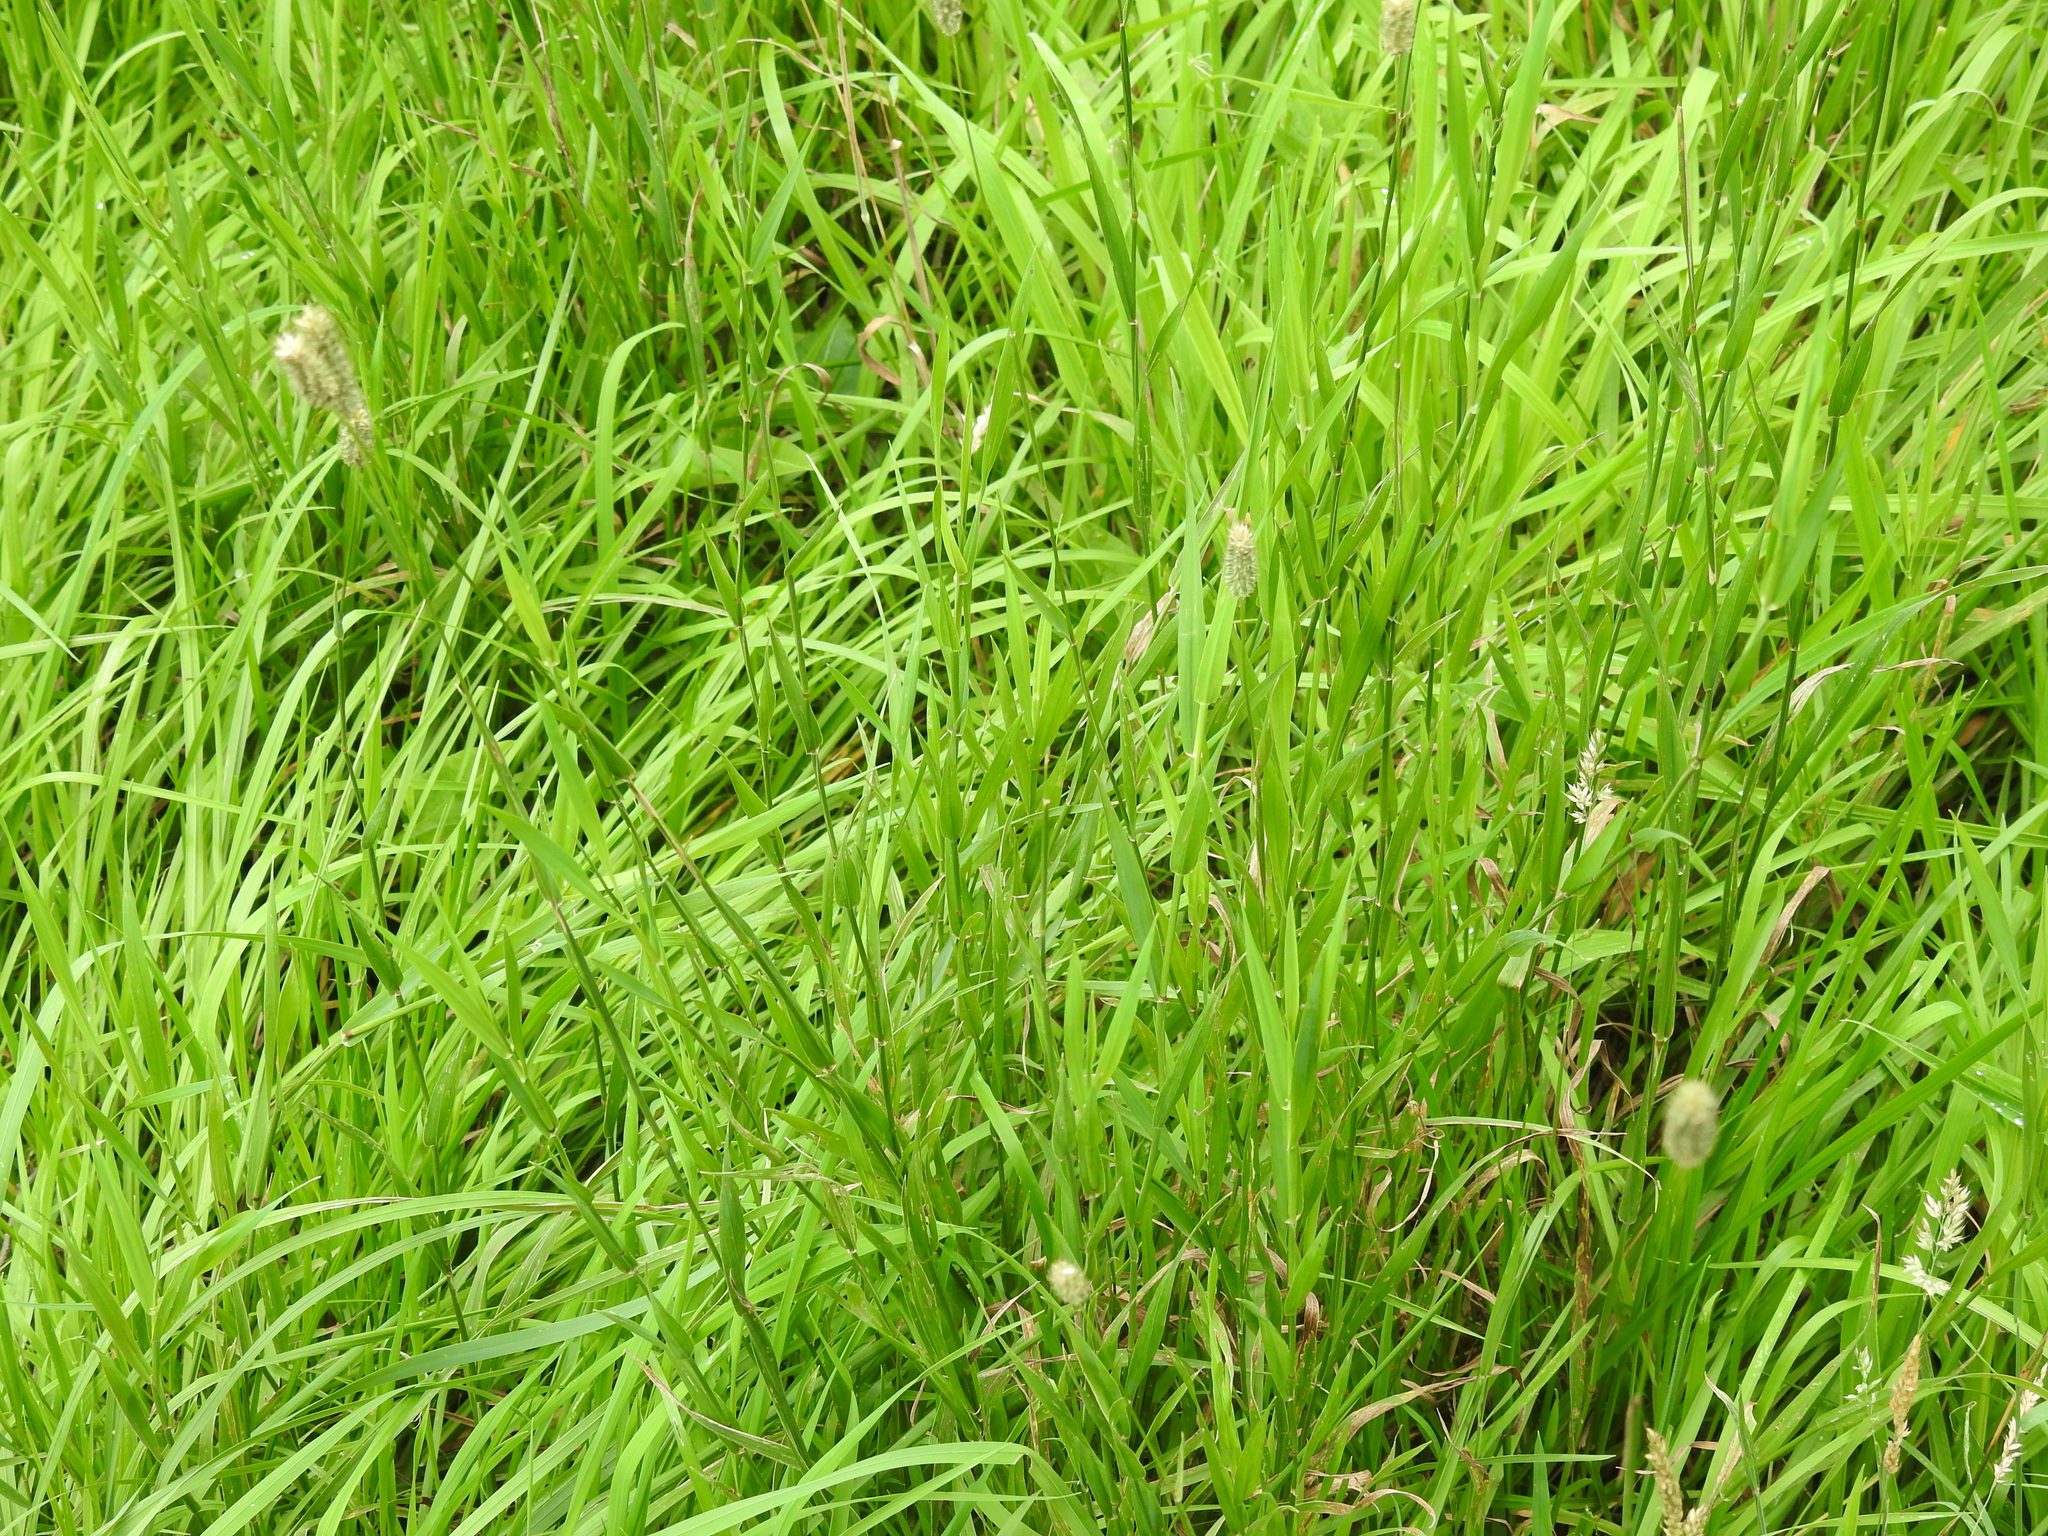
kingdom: Plantae
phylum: Tracheophyta
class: Liliopsida
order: Poales
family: Poaceae
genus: Phleum
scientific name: Phleum pratense
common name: Timothy grass
